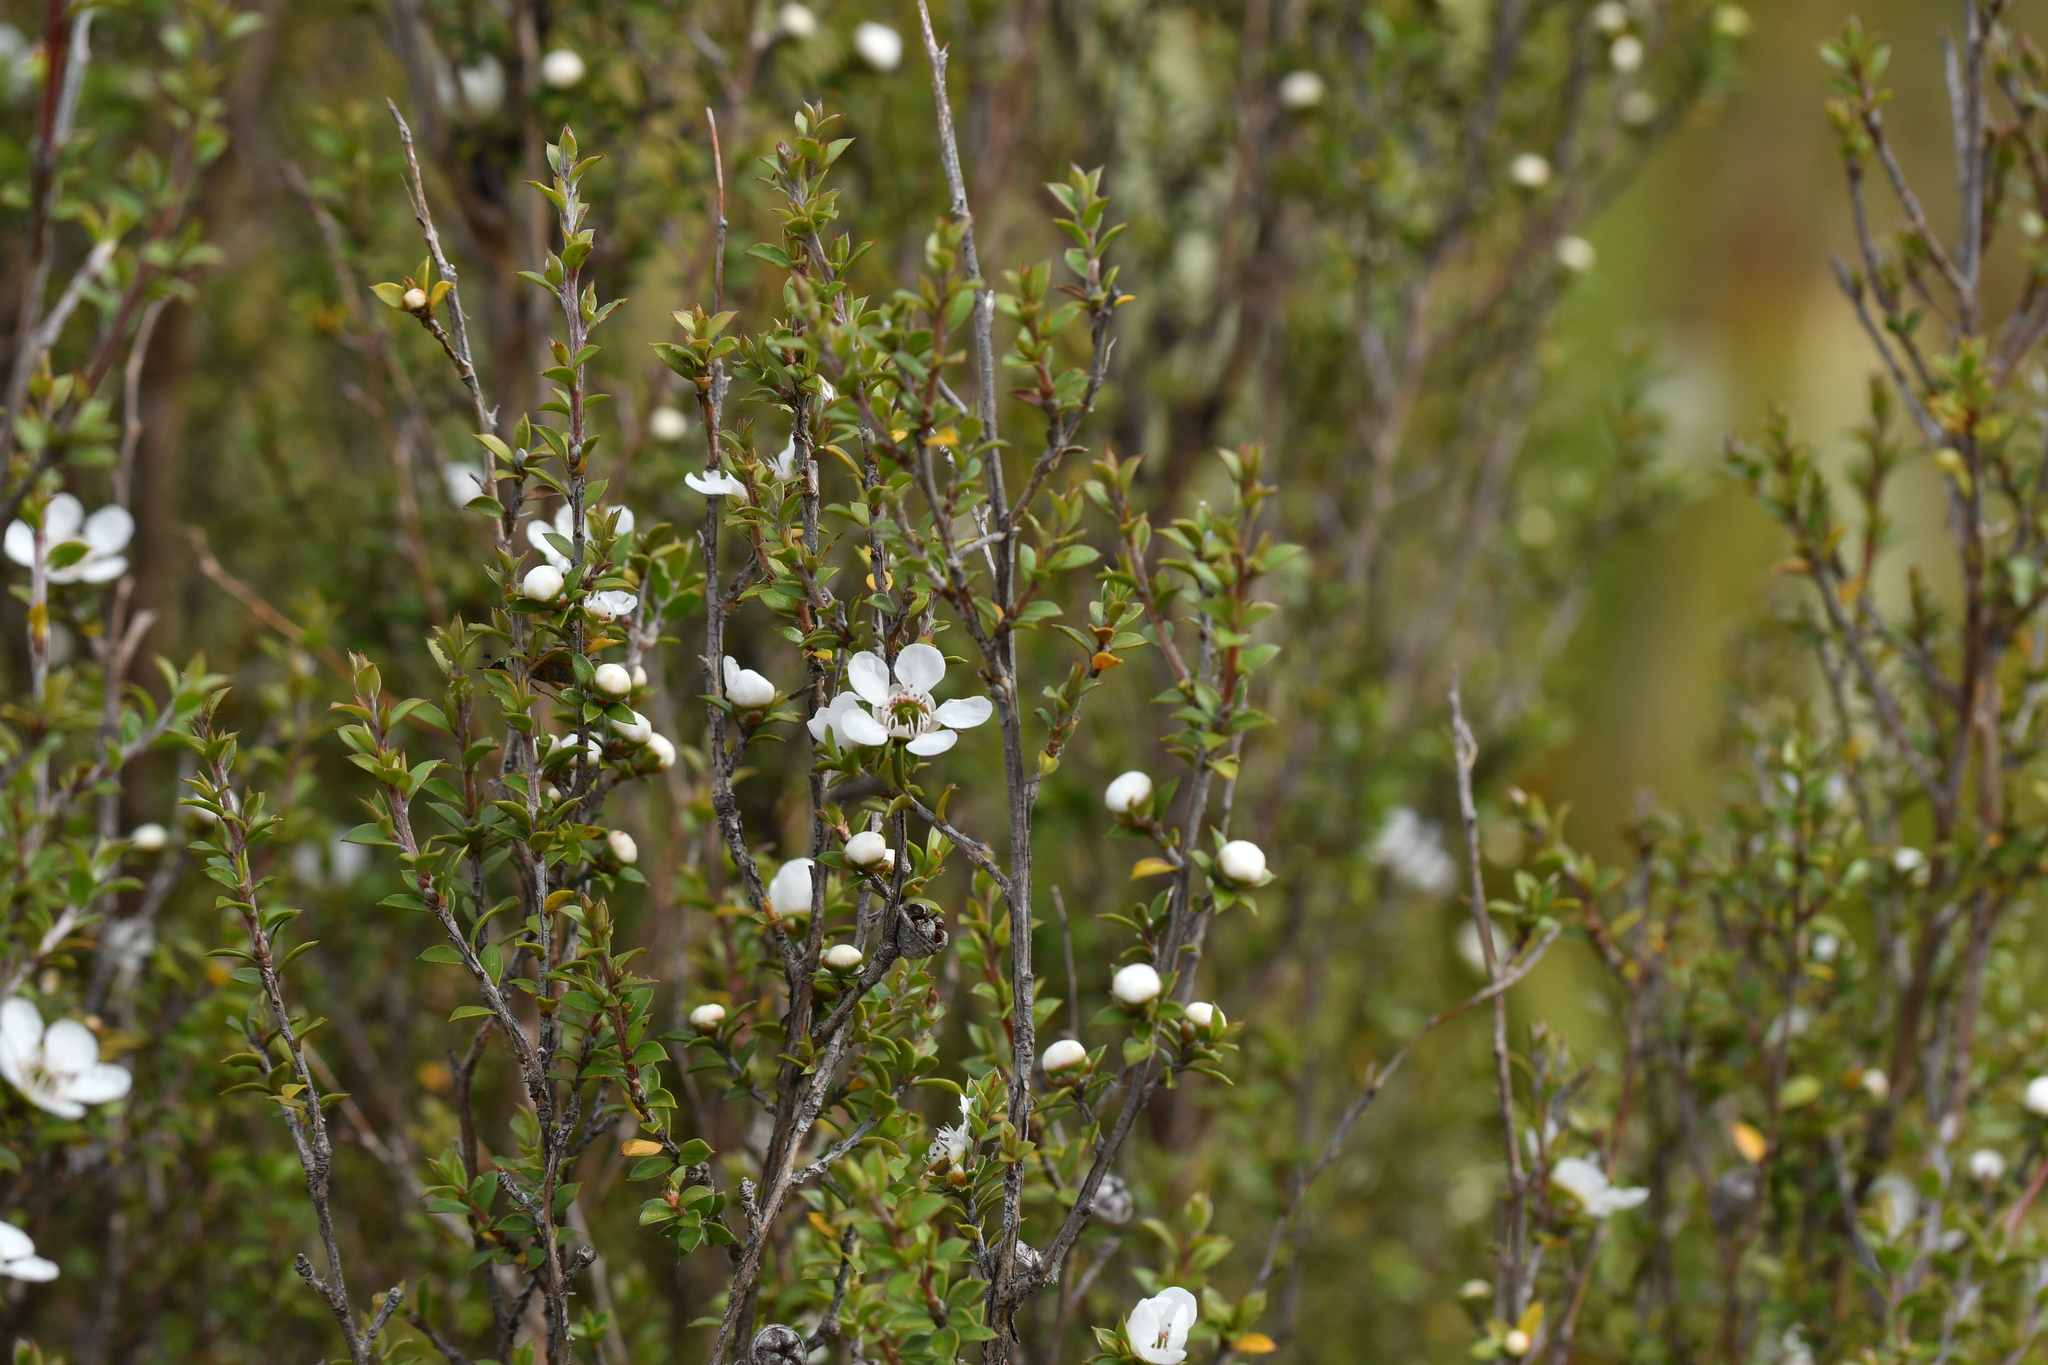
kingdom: Plantae
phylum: Tracheophyta
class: Magnoliopsida
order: Myrtales
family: Myrtaceae
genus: Leptospermum
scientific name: Leptospermum scoparium
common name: Broom tea-tree
